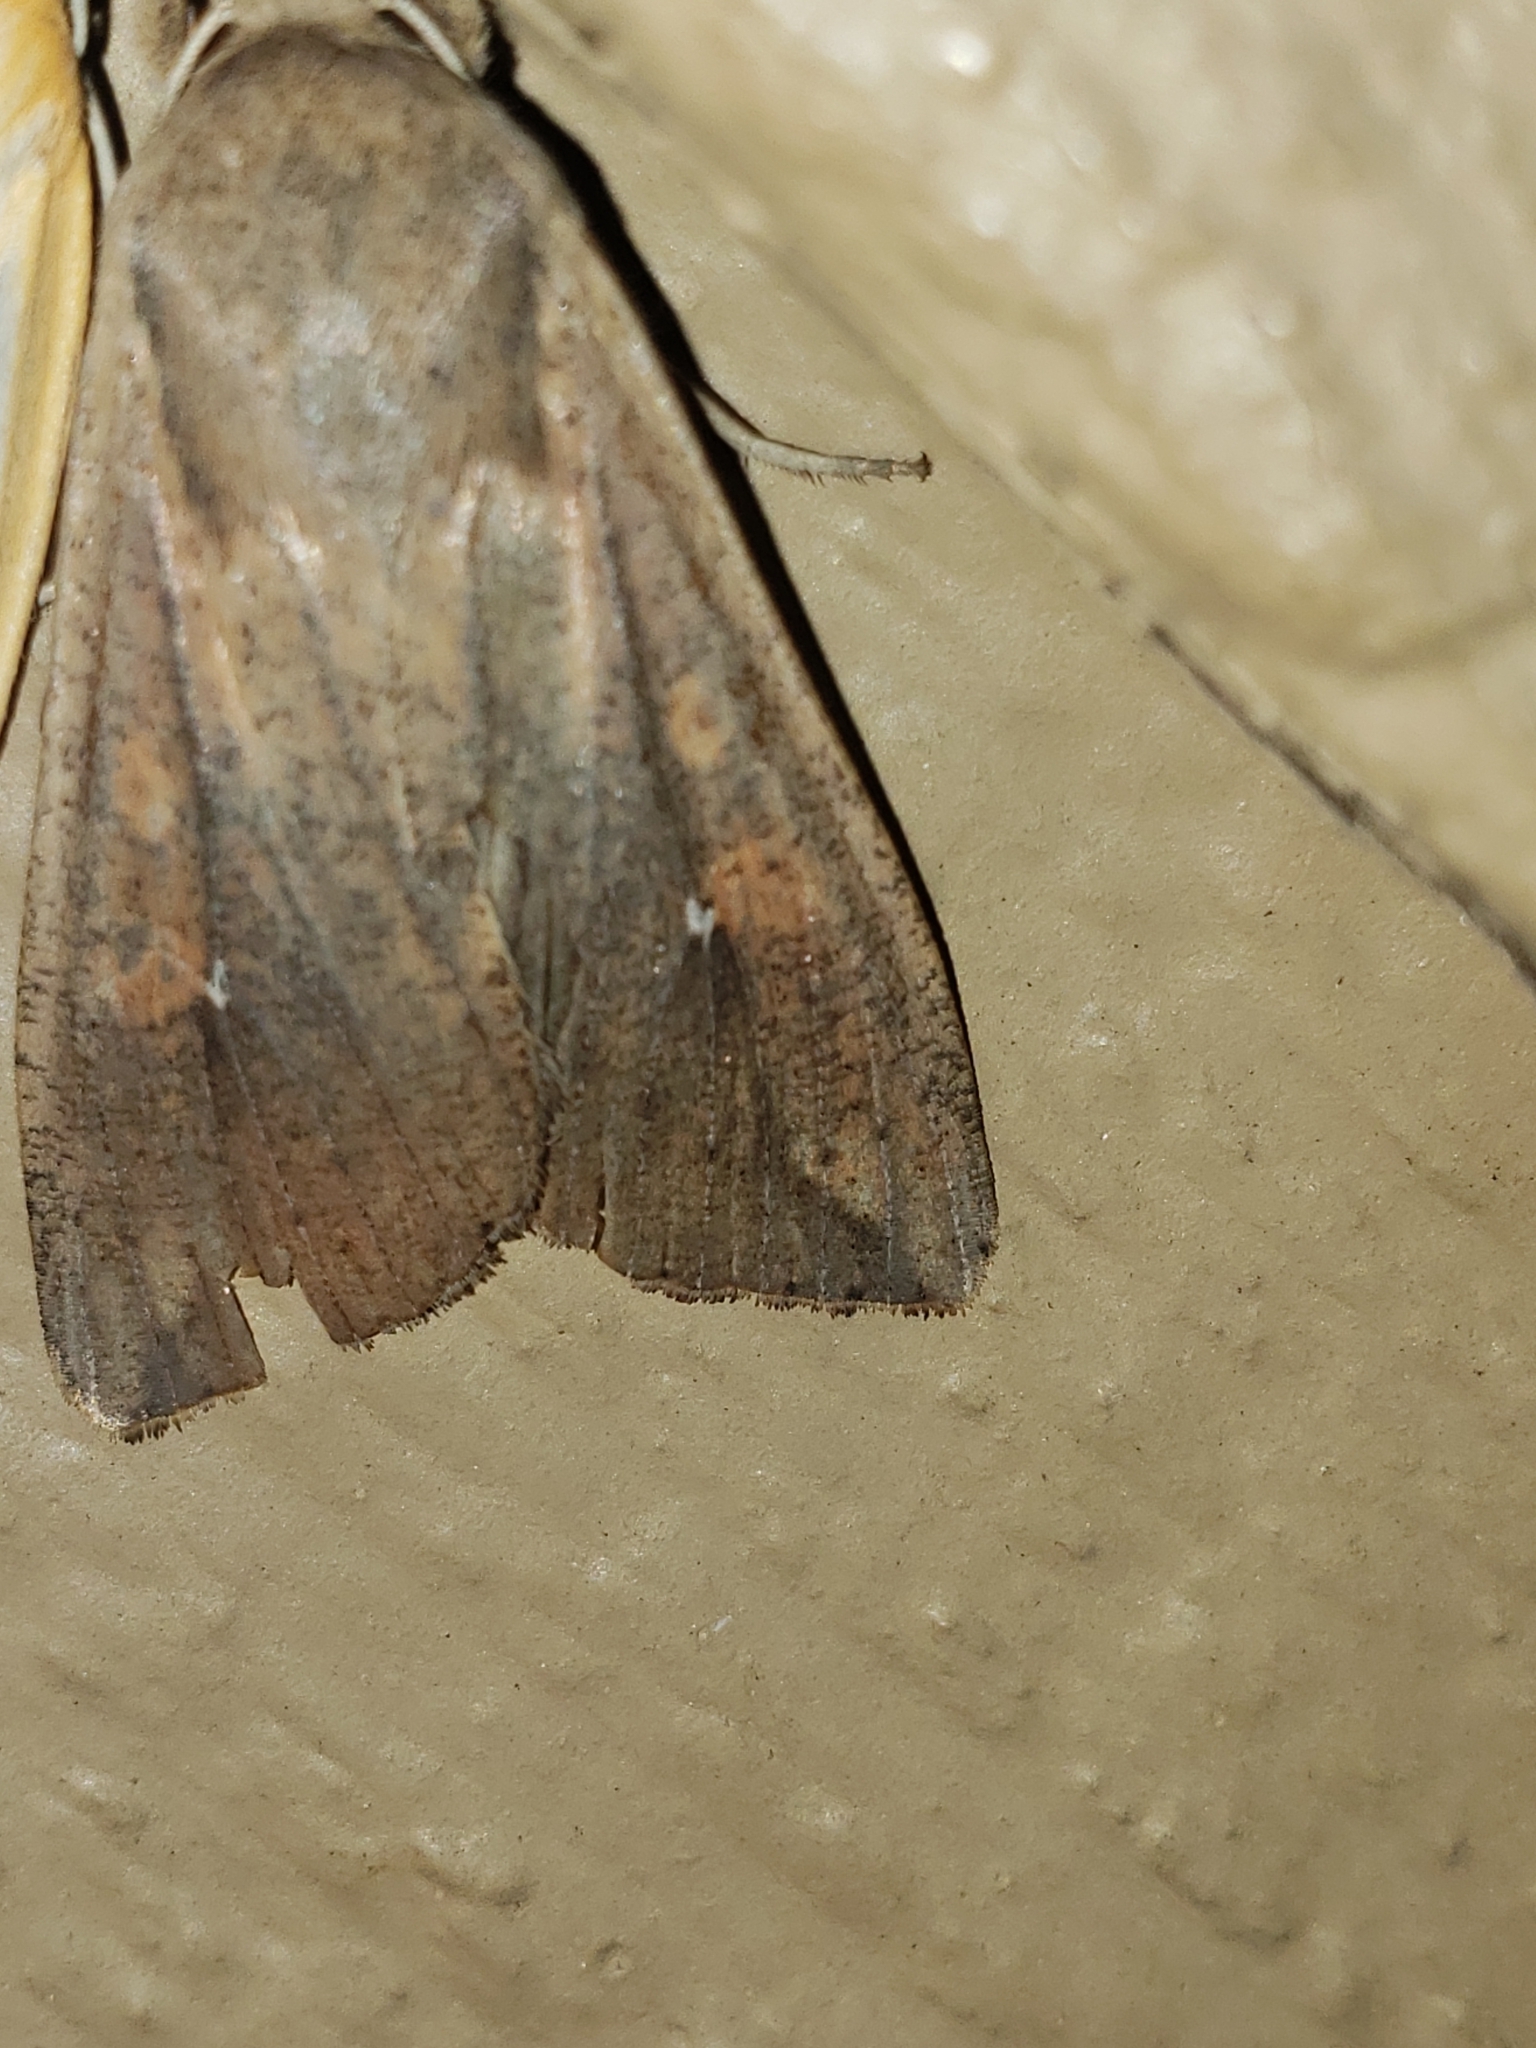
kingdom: Animalia
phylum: Arthropoda
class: Insecta
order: Lepidoptera
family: Noctuidae
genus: Mythimna
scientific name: Mythimna unipuncta
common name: White-speck
